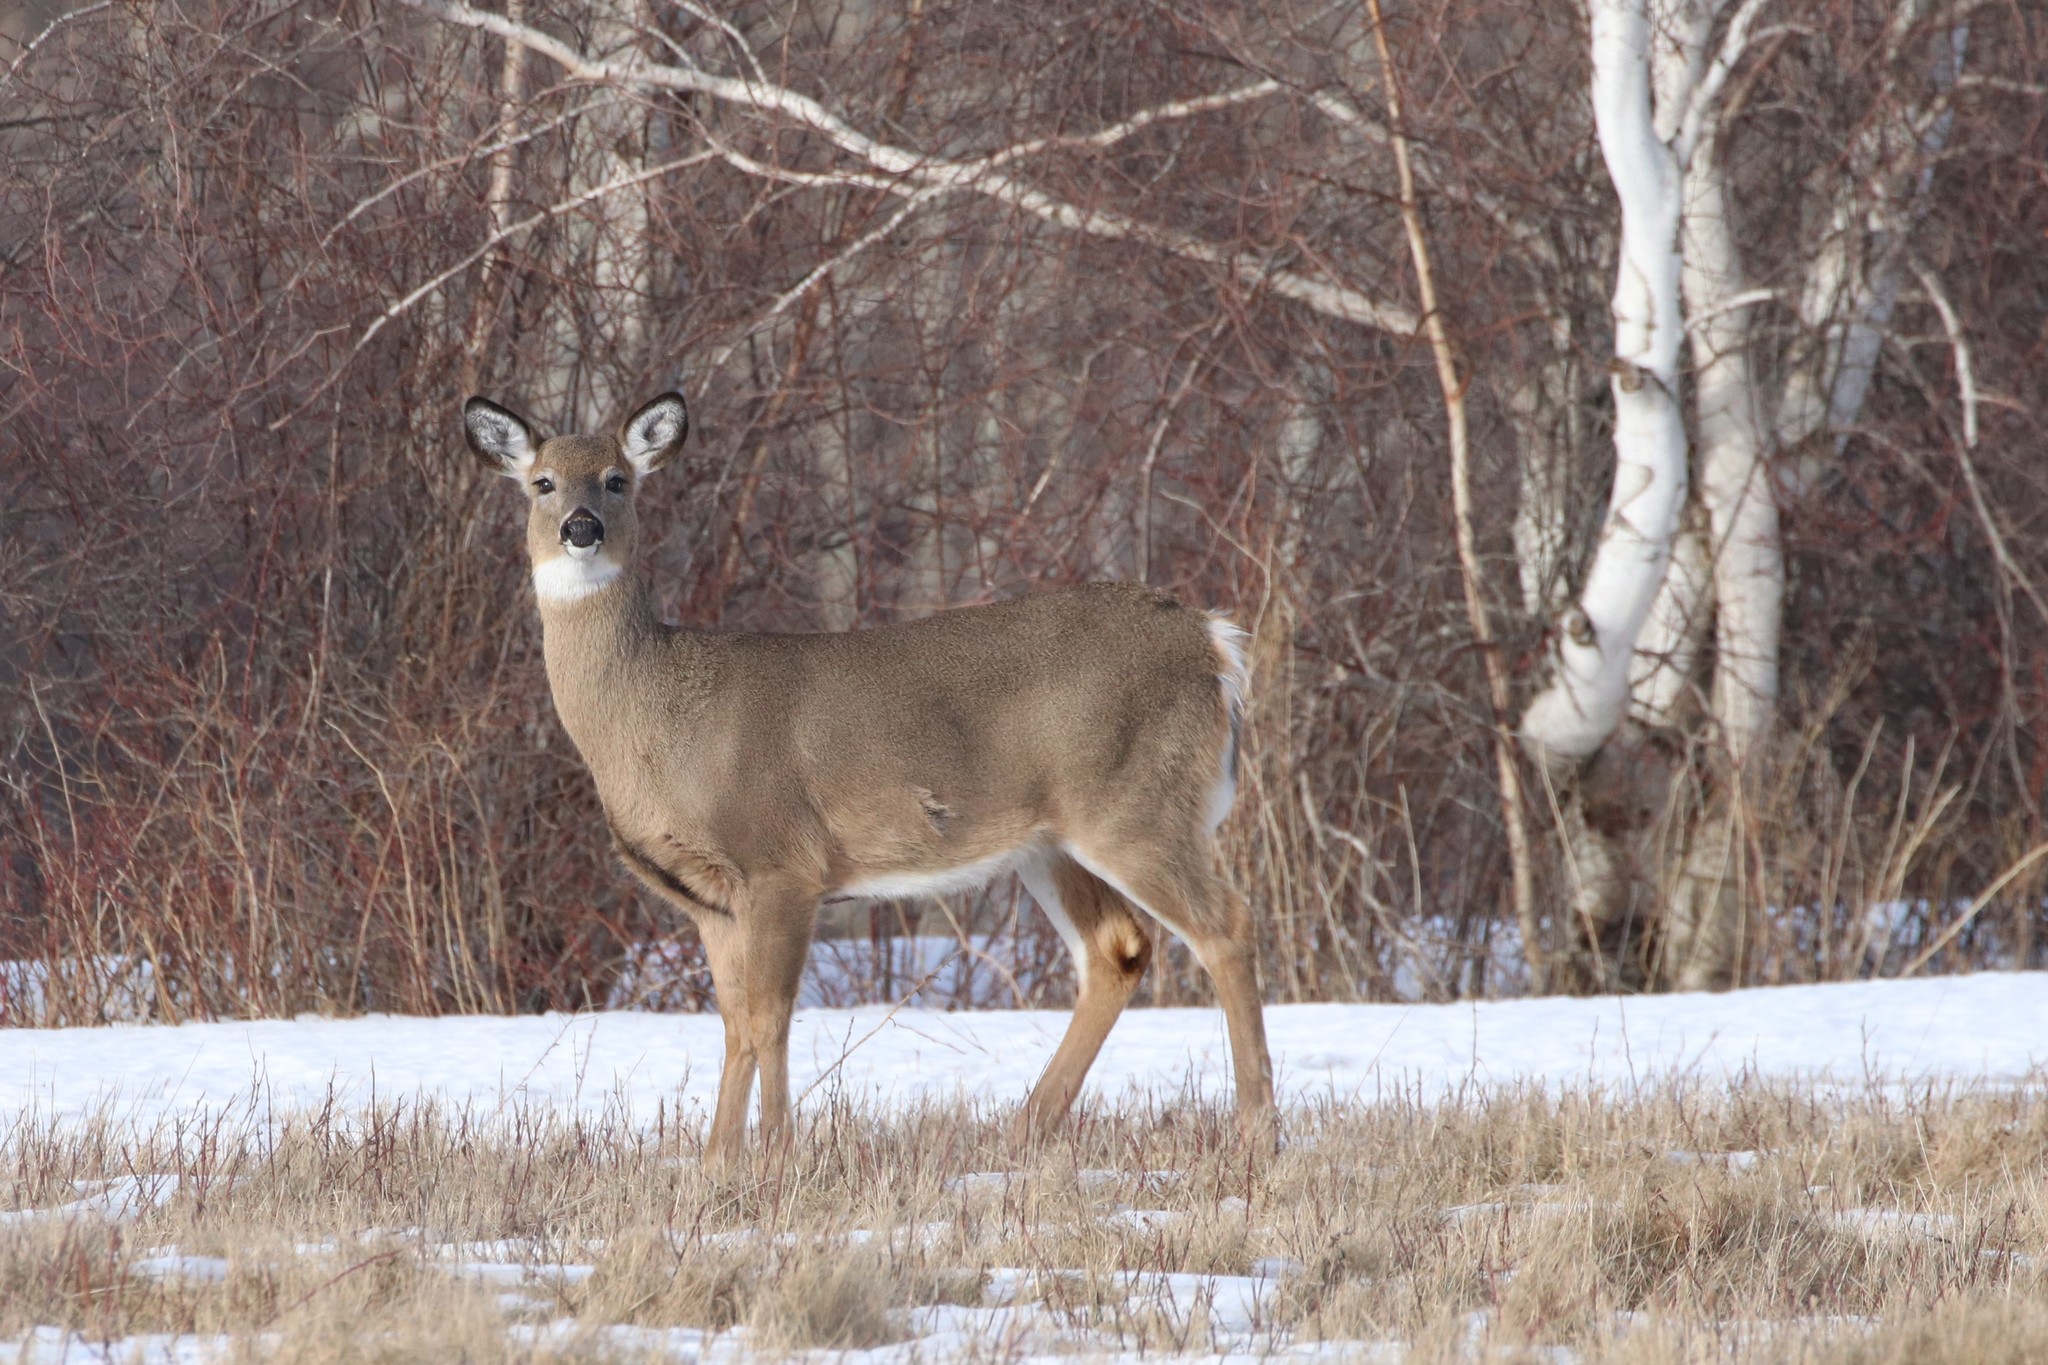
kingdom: Animalia
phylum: Chordata
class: Mammalia
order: Artiodactyla
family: Cervidae
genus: Odocoileus
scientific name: Odocoileus virginianus
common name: White-tailed deer
